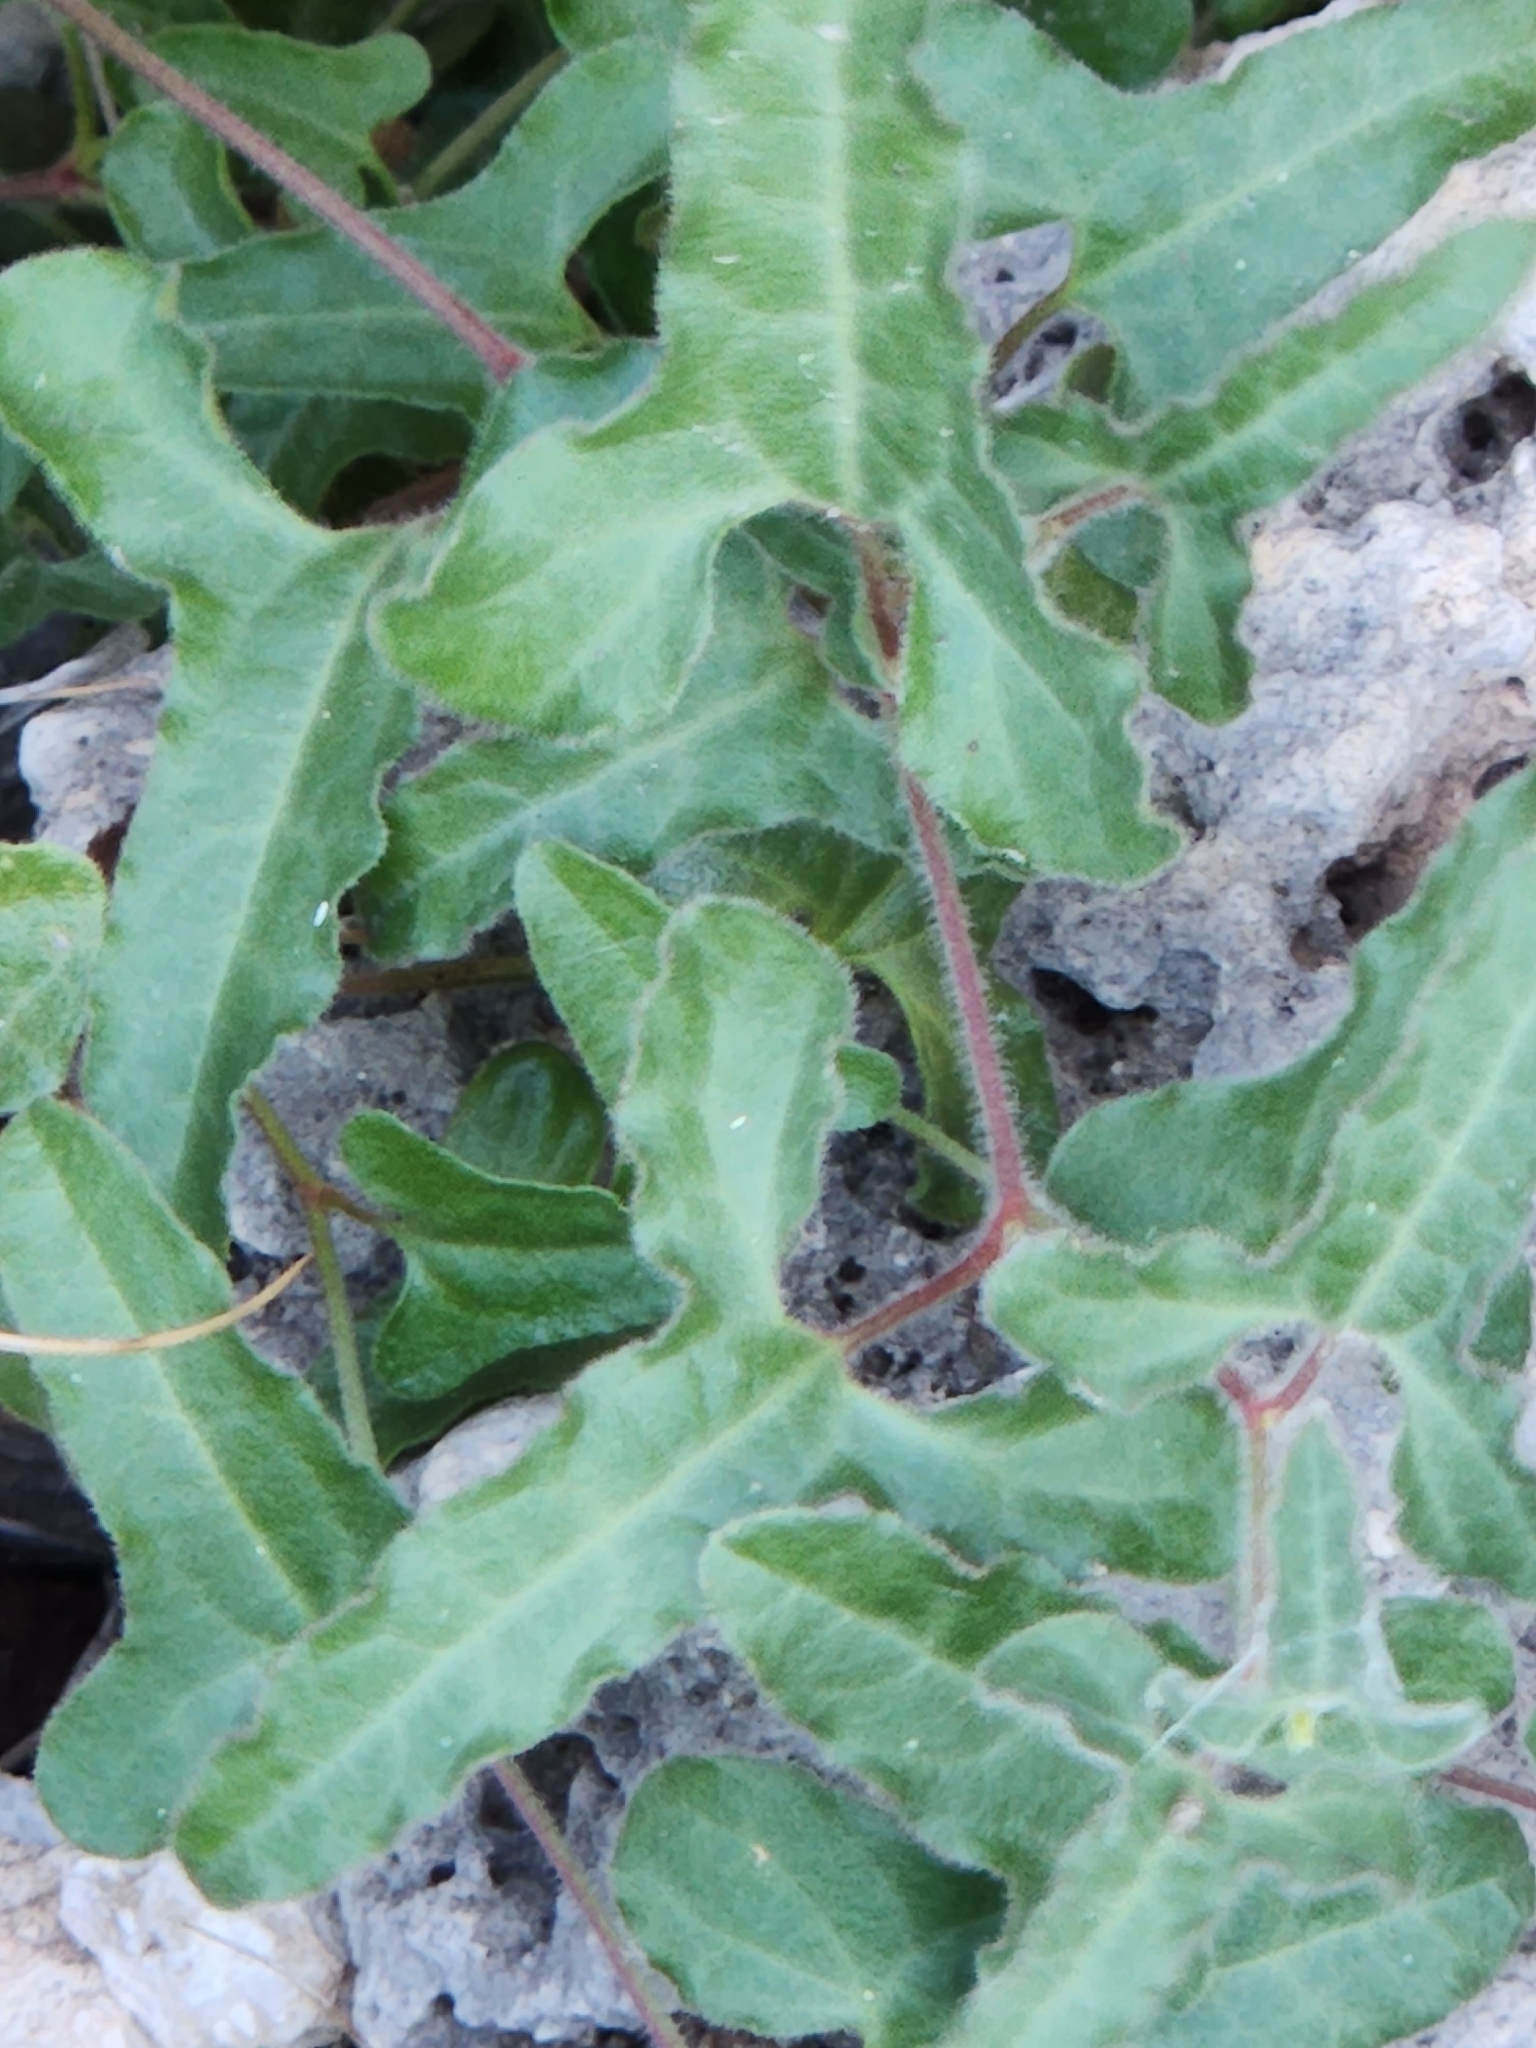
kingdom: Plantae
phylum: Tracheophyta
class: Magnoliopsida
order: Piperales
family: Aristolochiaceae
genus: Aristolochia
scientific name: Aristolochia coryi
